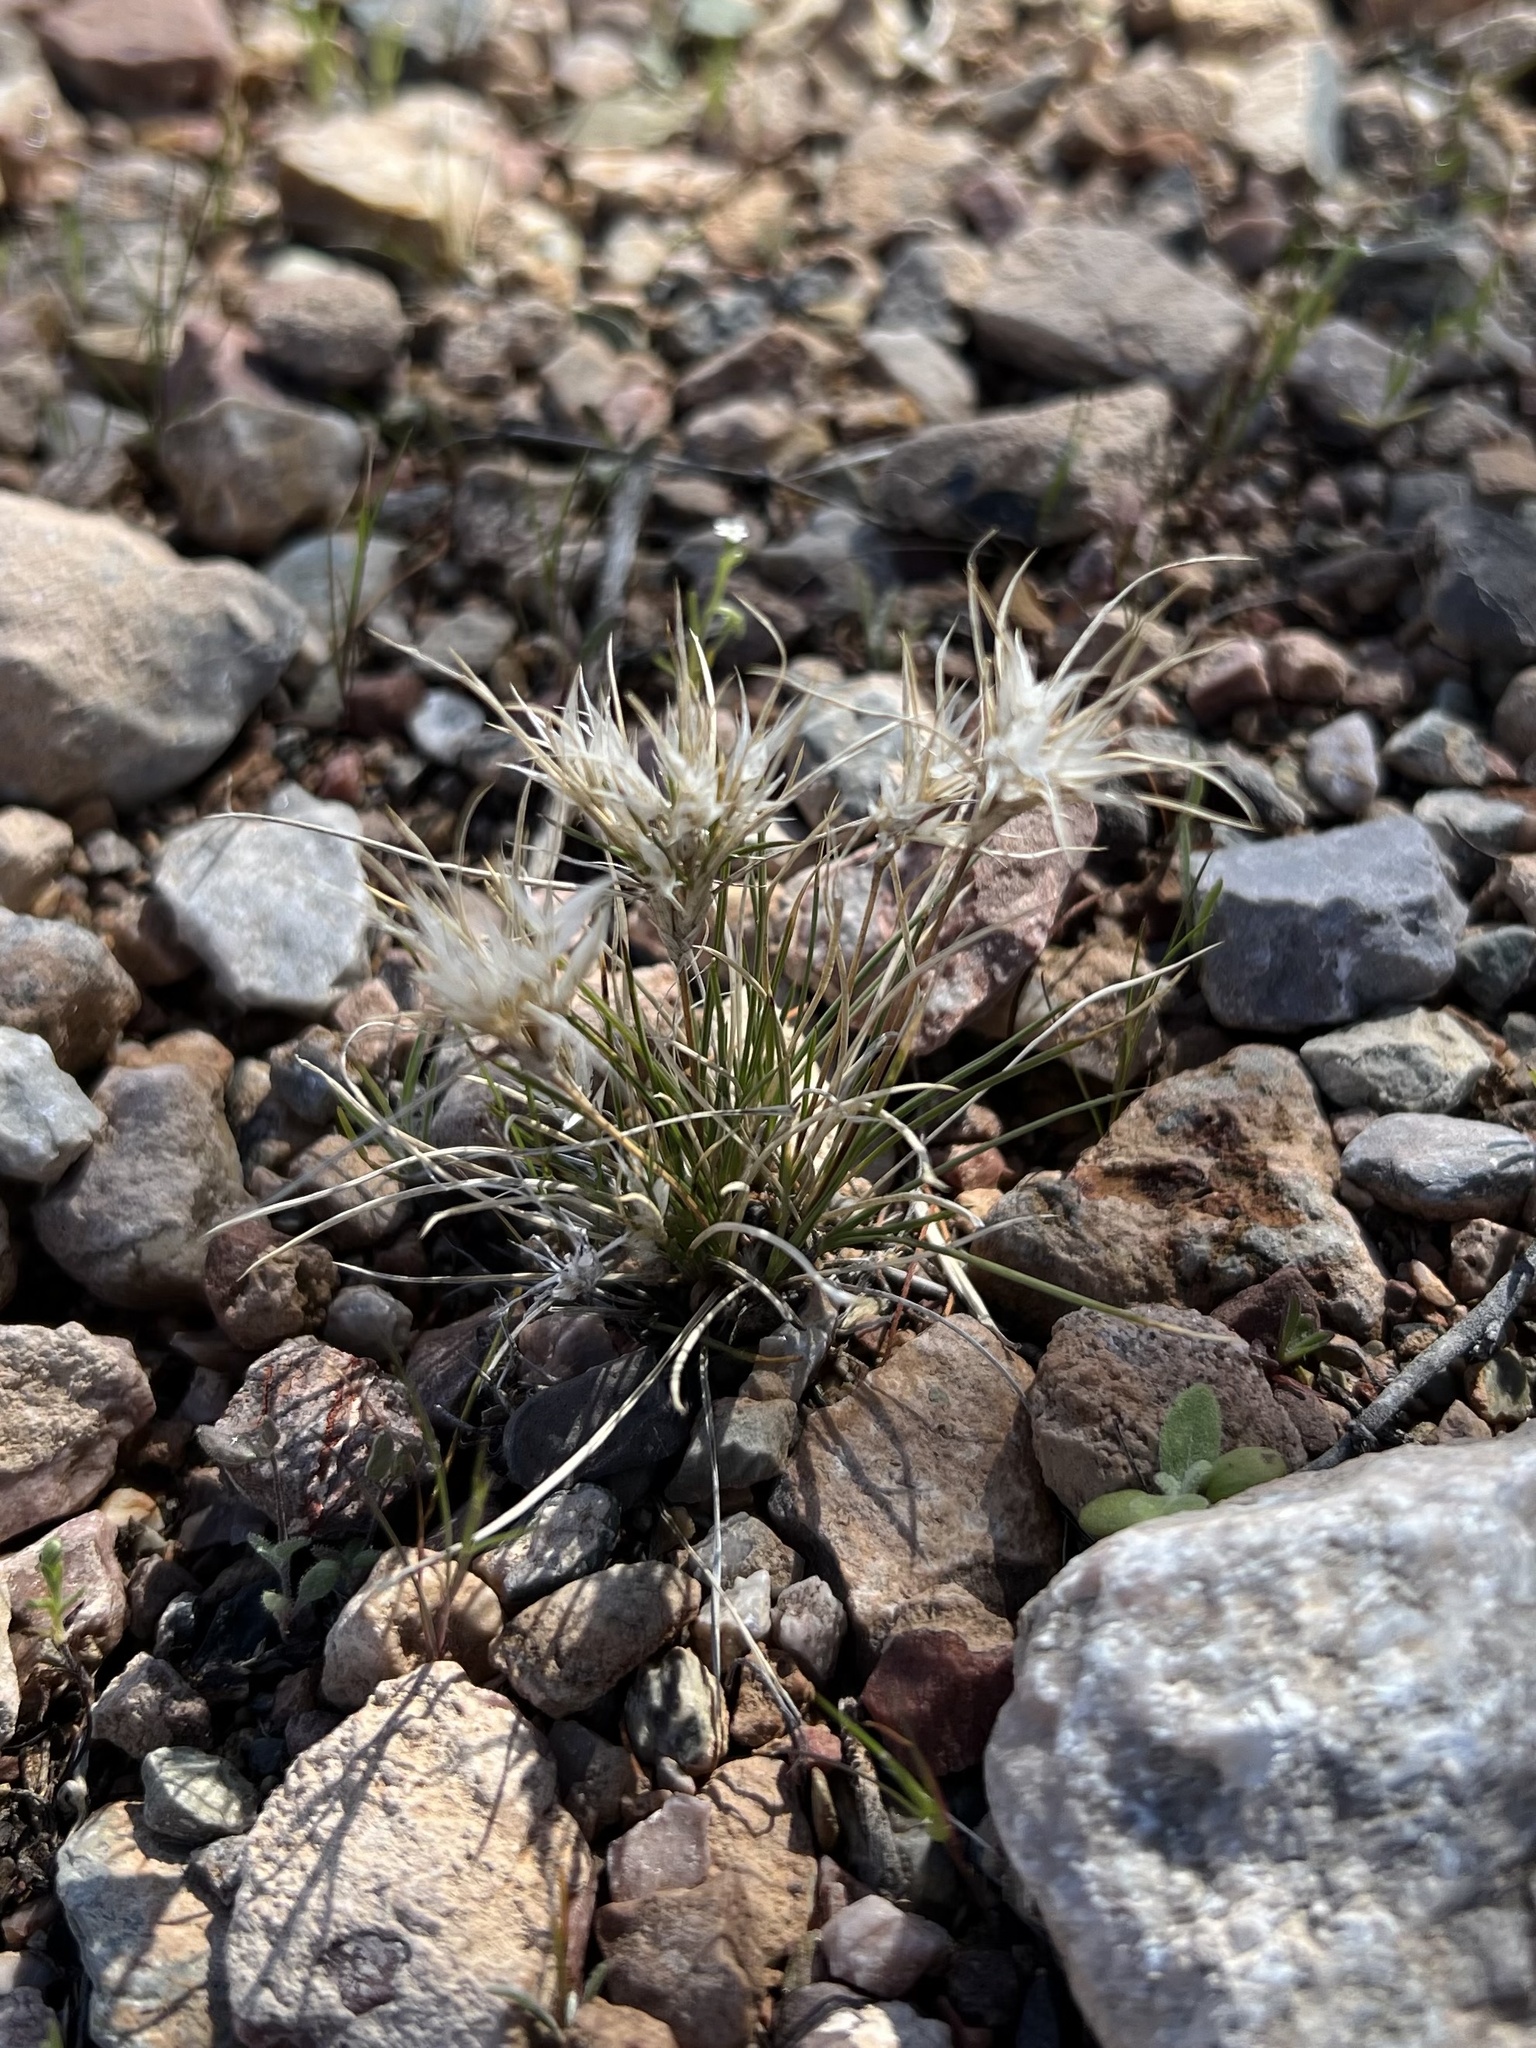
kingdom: Plantae
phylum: Tracheophyta
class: Liliopsida
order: Poales
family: Poaceae
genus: Dasyochloa
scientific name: Dasyochloa pulchella
